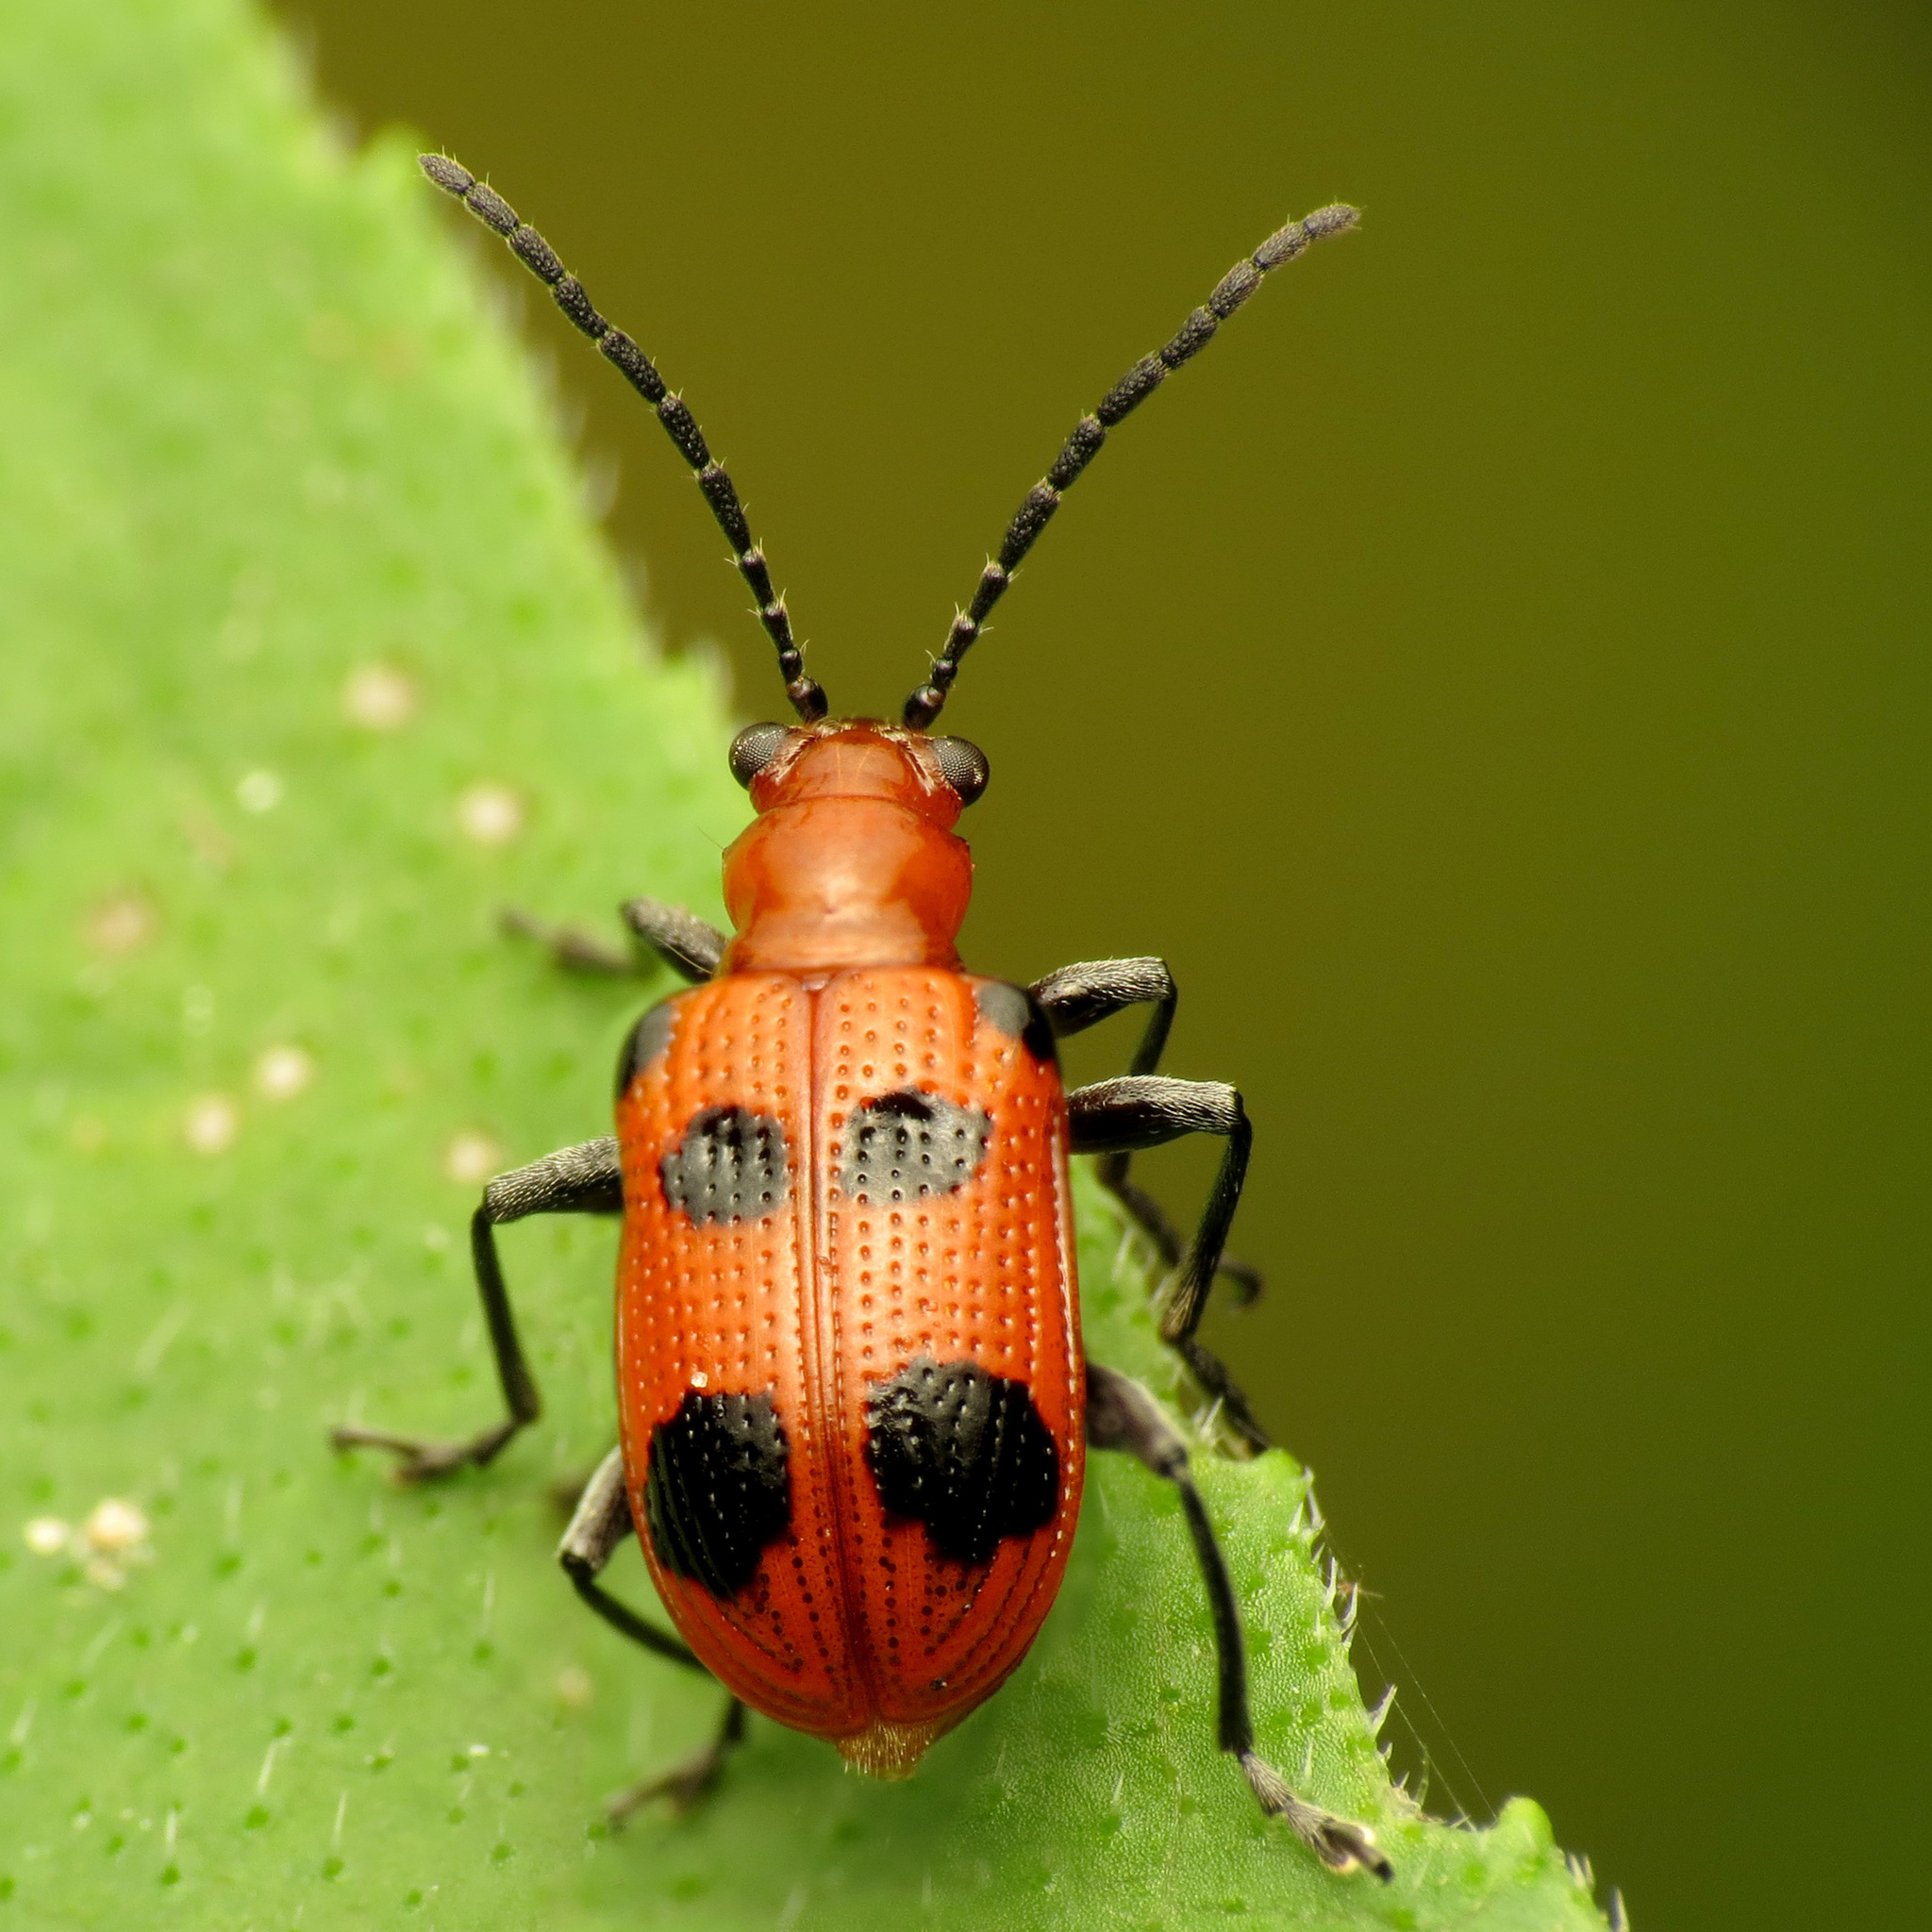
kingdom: Animalia
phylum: Arthropoda
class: Insecta
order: Coleoptera
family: Chrysomelidae
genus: Neolema
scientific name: Neolema sexpunctata
